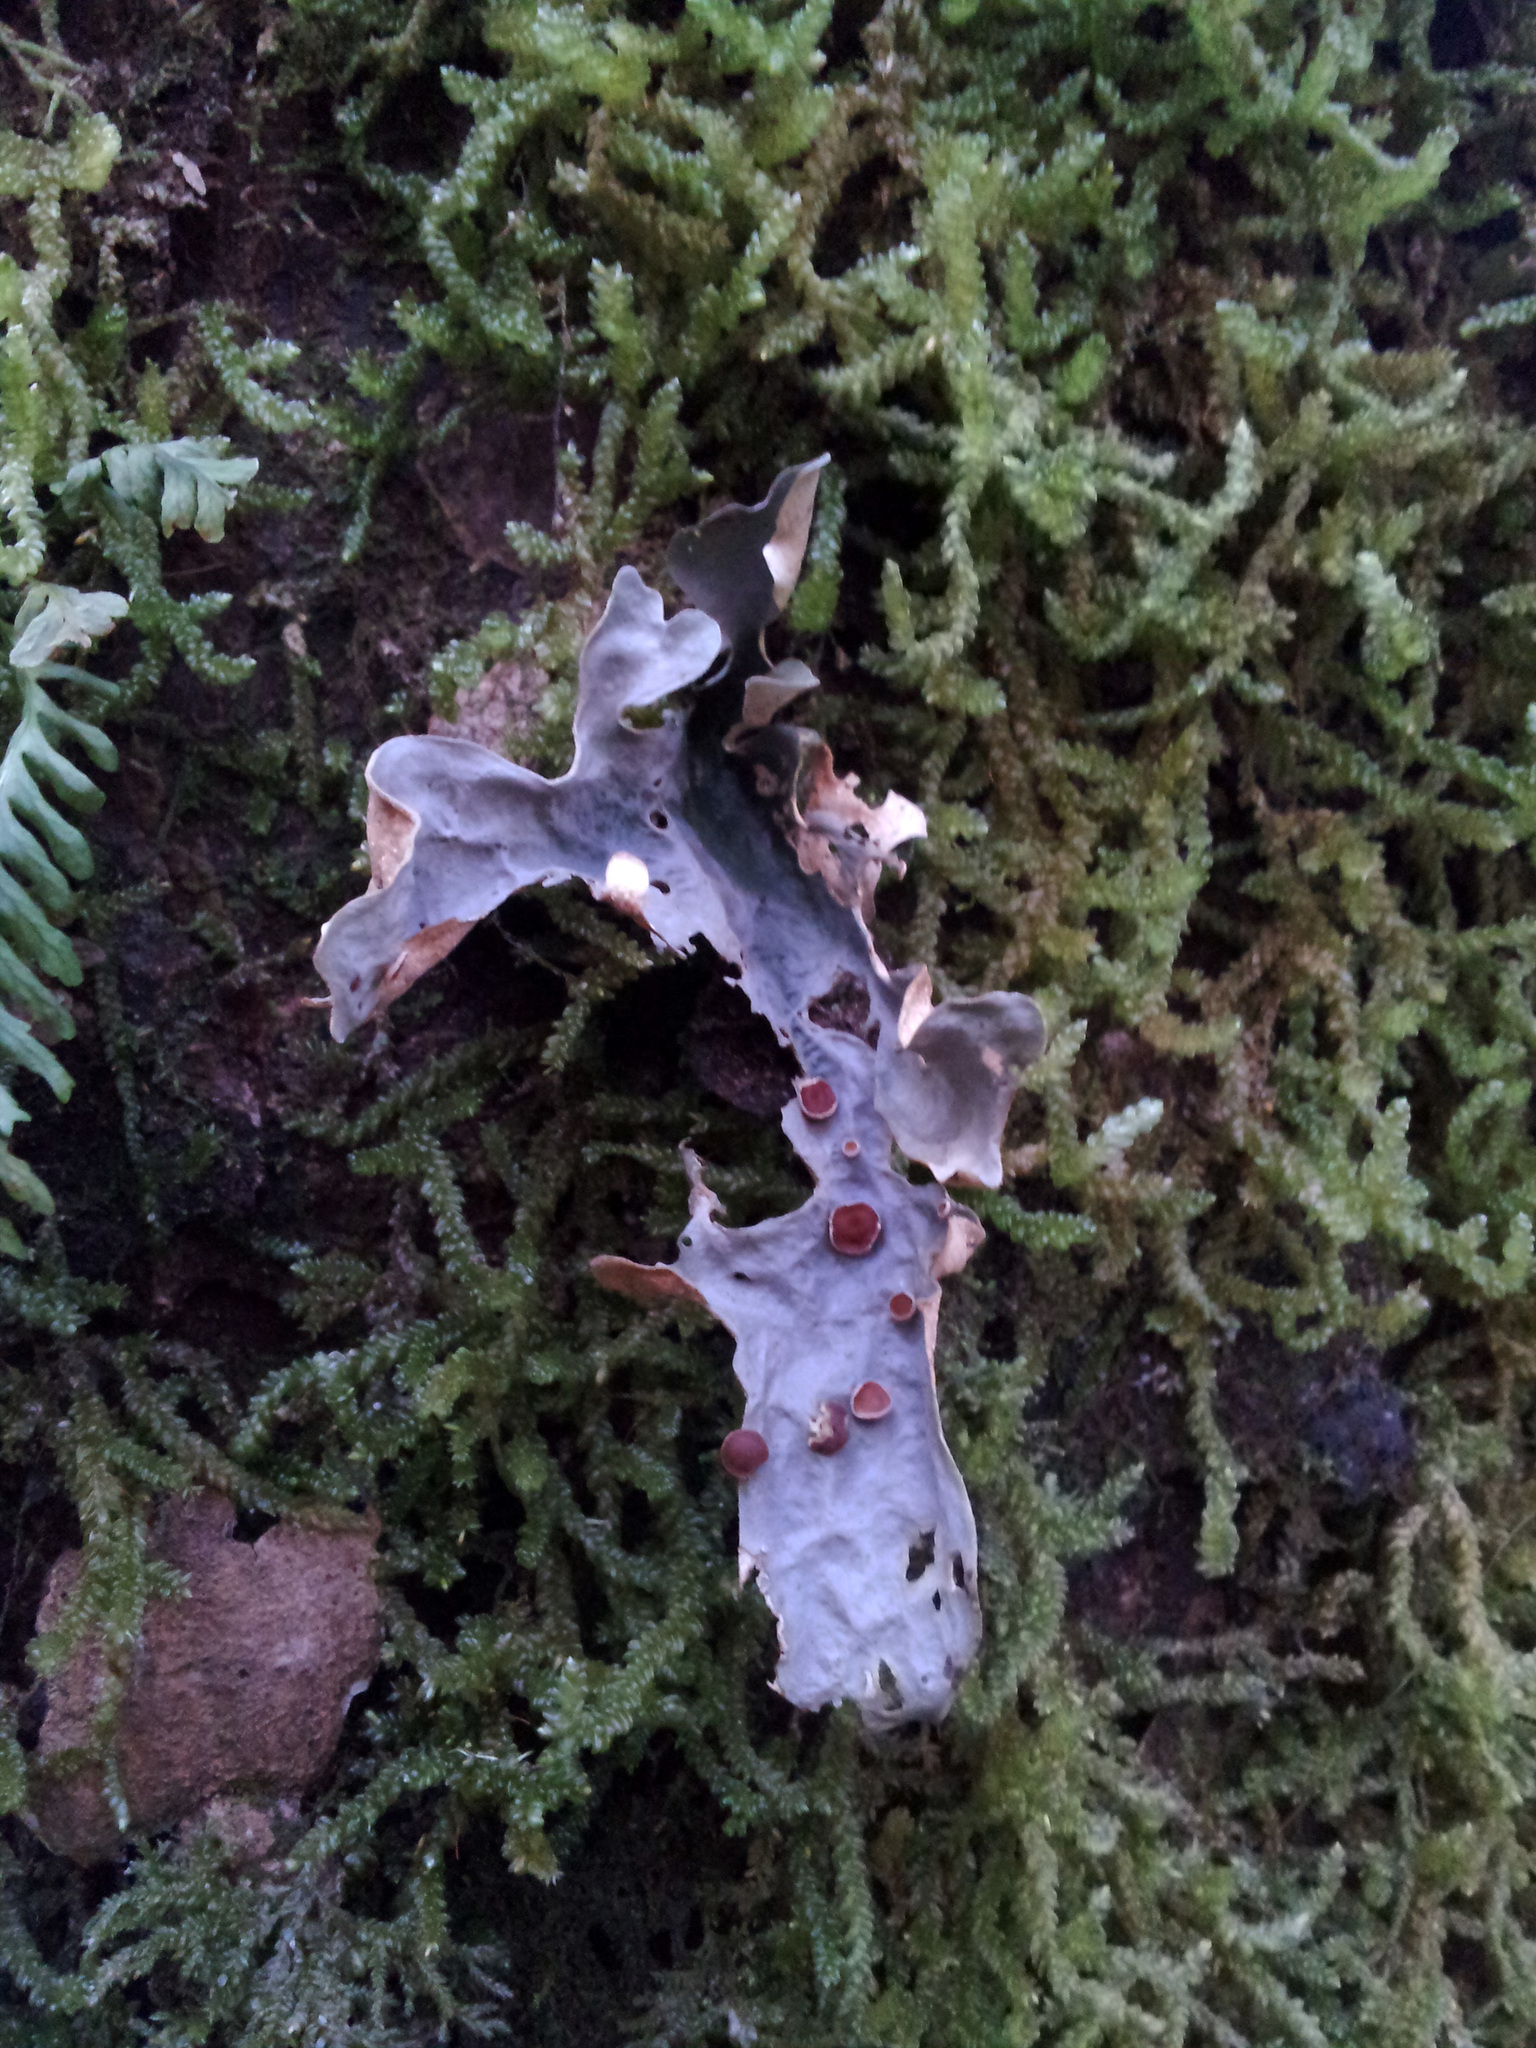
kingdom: Fungi
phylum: Ascomycota
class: Lecanoromycetes
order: Peltigerales
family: Lobariaceae
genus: Sticta
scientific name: Sticta latifrons
